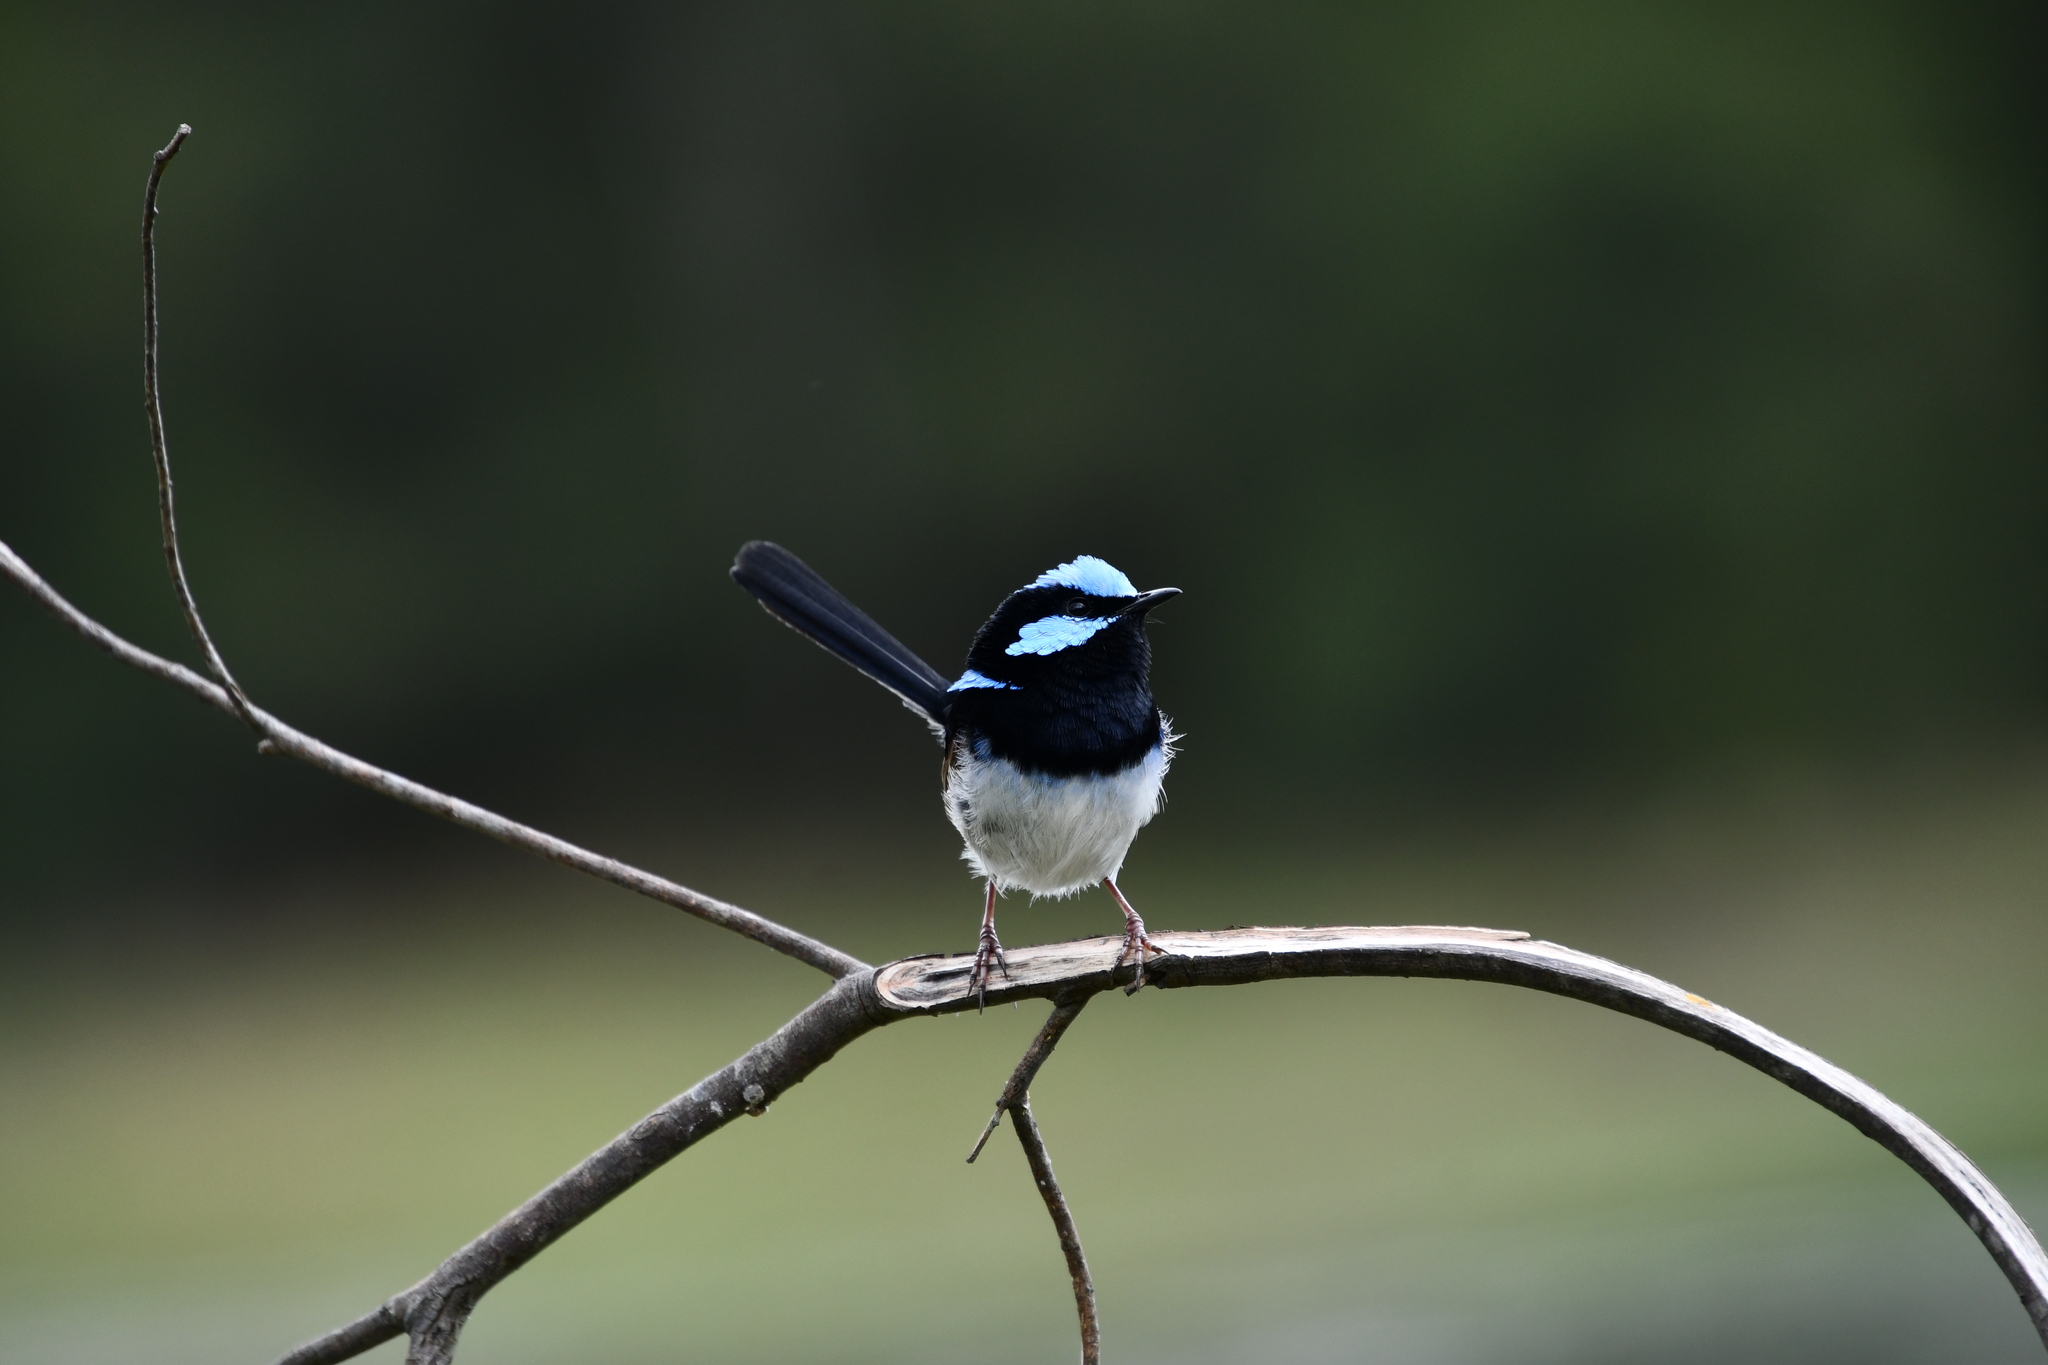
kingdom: Animalia
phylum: Chordata
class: Aves
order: Passeriformes
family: Maluridae
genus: Malurus
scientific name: Malurus cyaneus
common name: Superb fairywren
